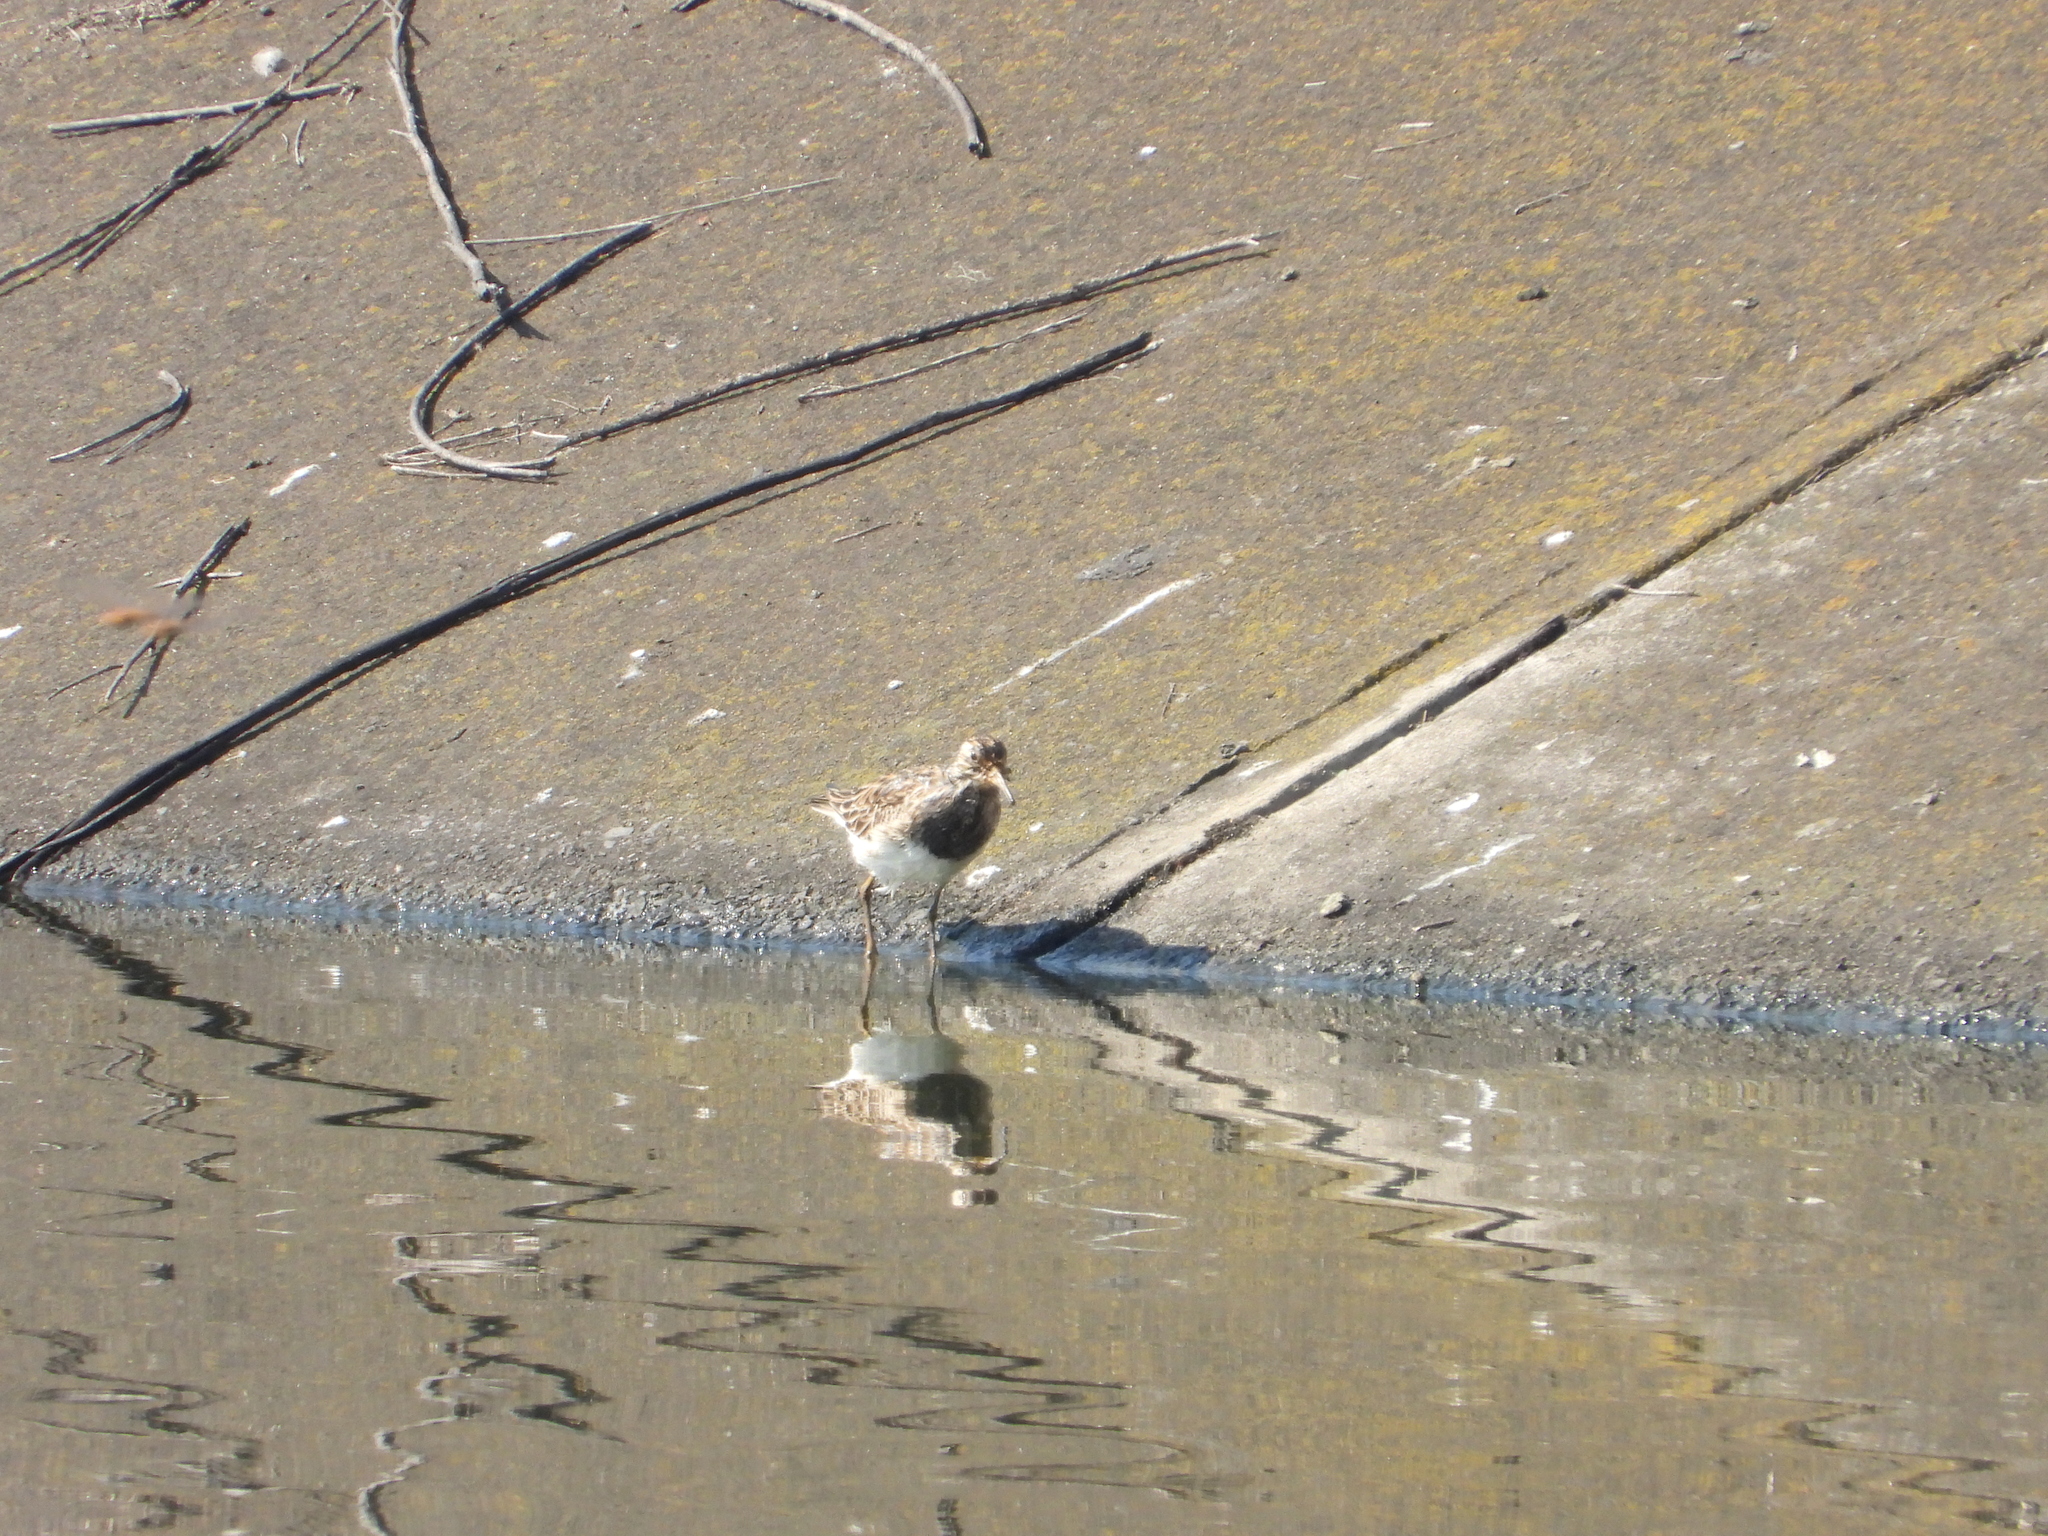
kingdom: Animalia
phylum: Chordata
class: Aves
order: Charadriiformes
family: Scolopacidae
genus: Calidris
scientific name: Calidris melanotos
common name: Pectoral sandpiper
